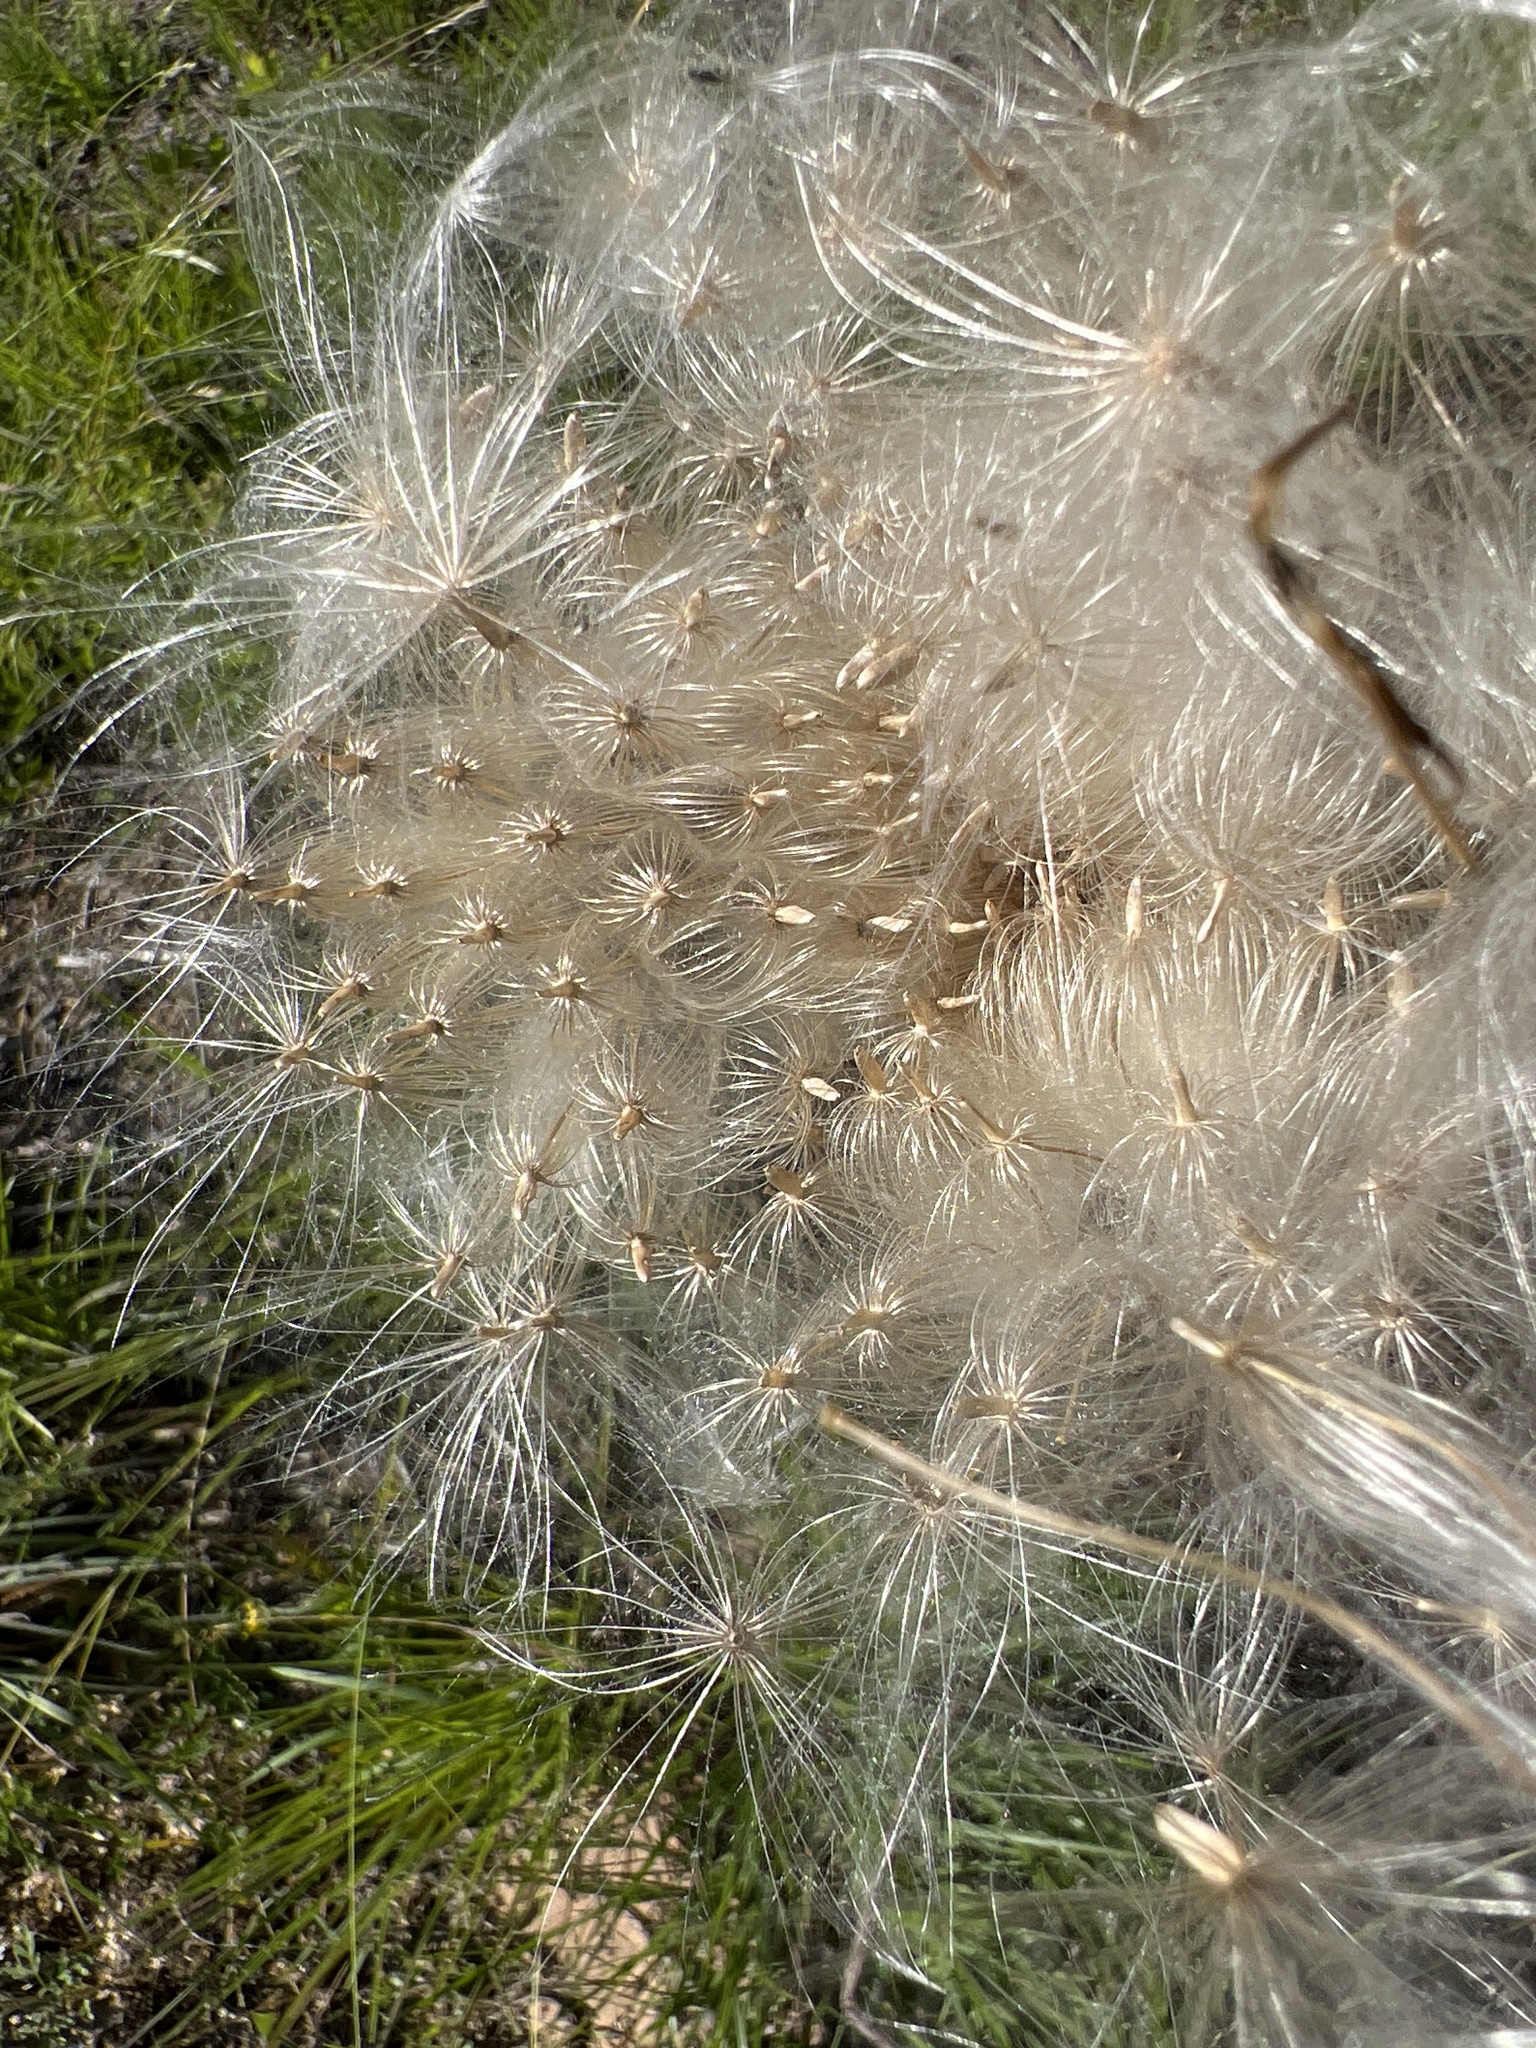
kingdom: Plantae
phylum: Tracheophyta
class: Magnoliopsida
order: Asterales
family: Asteraceae
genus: Cirsium
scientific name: Cirsium horridulum
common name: Bristly thistle
